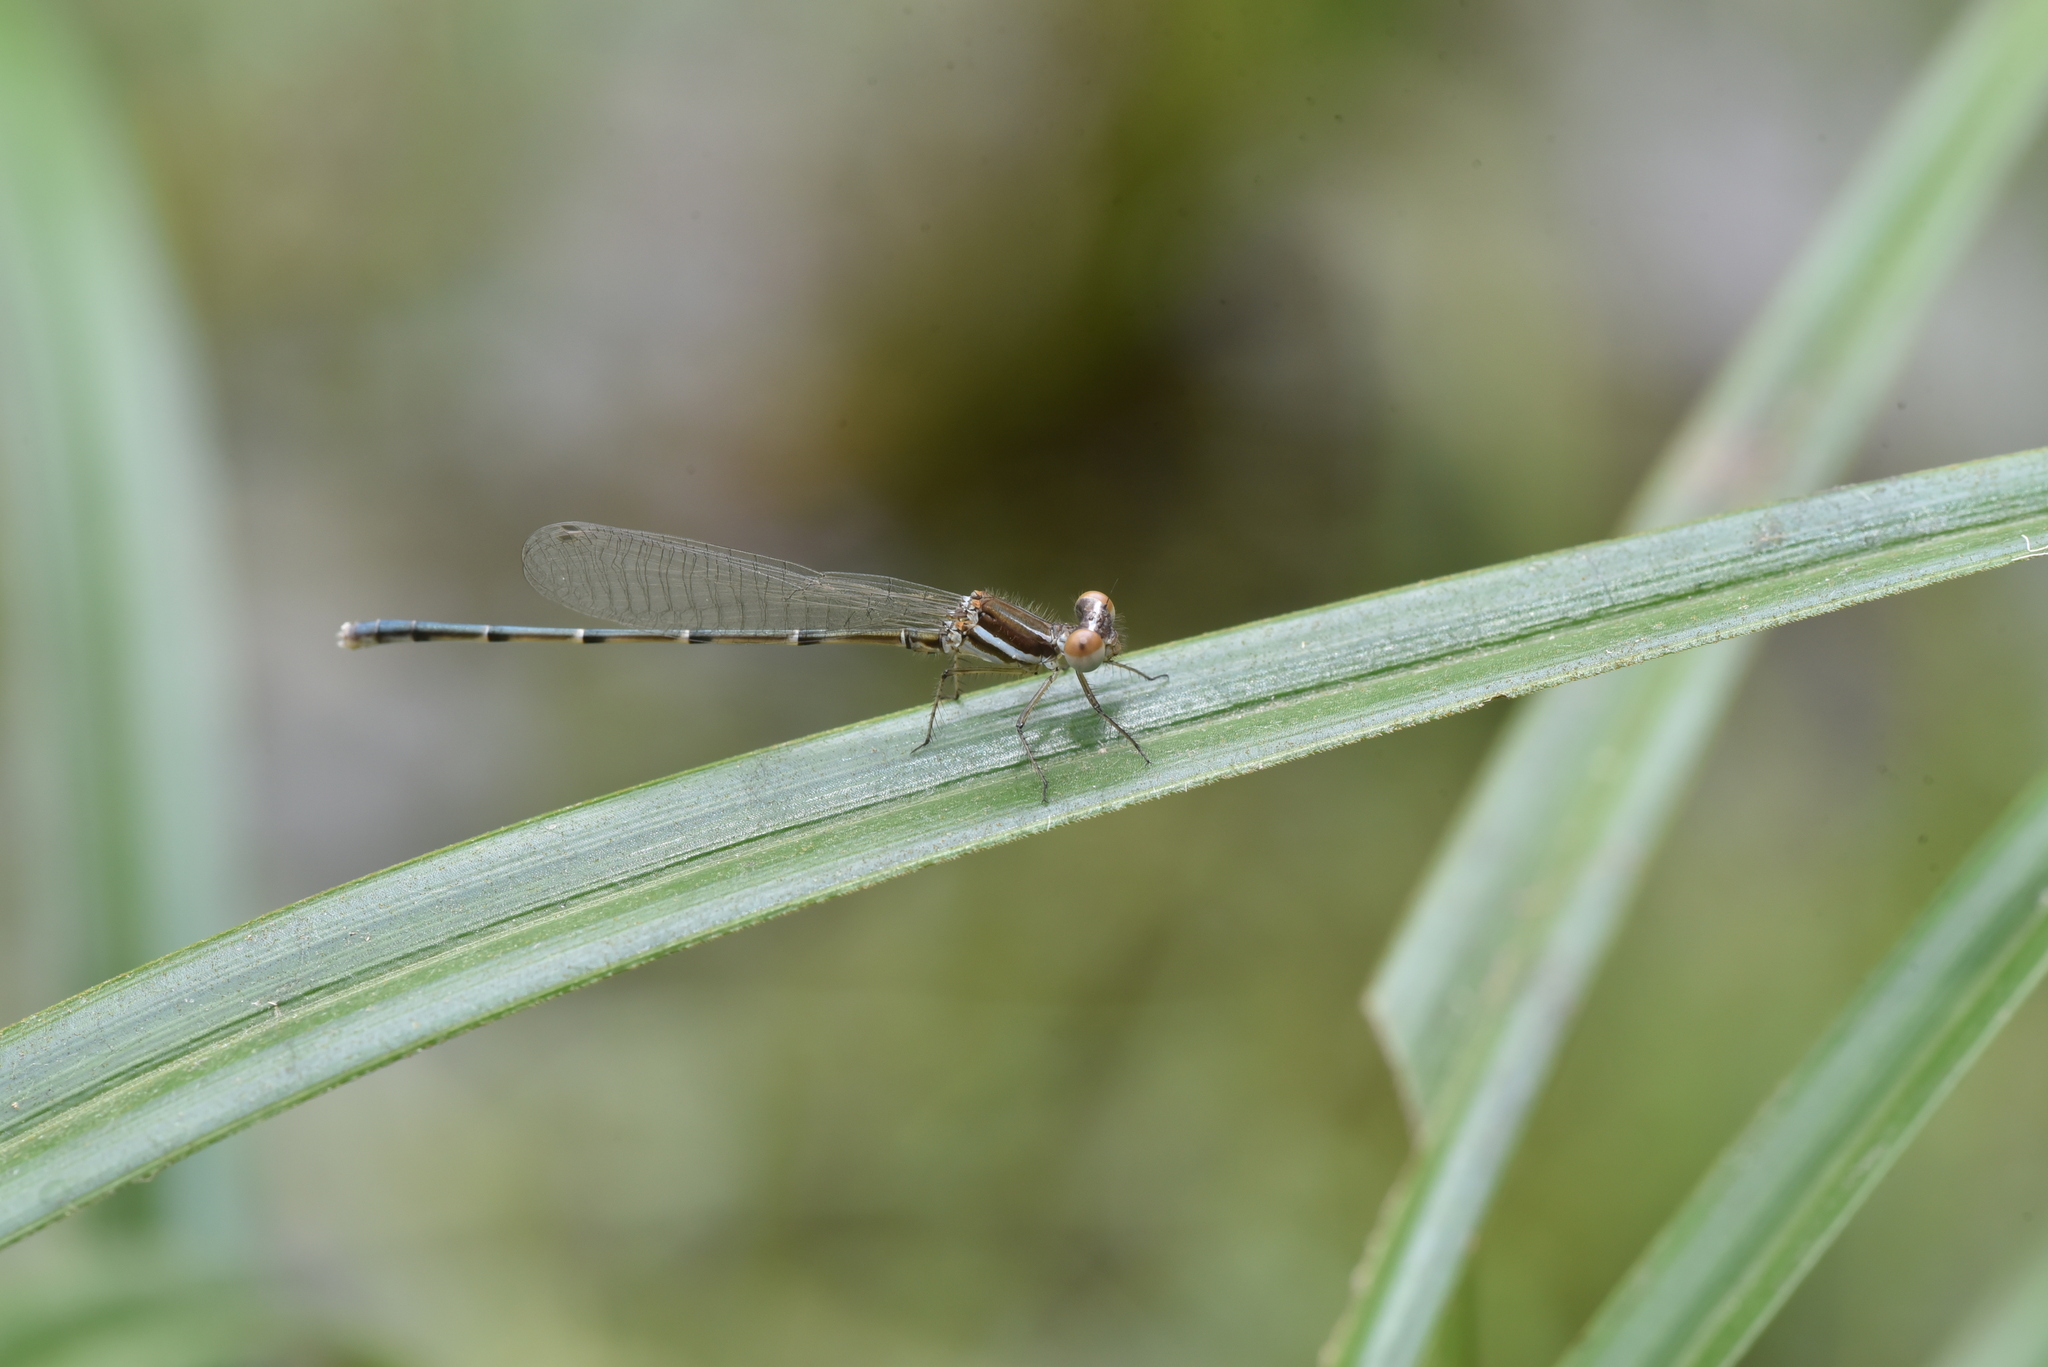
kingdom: Animalia
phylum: Arthropoda
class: Insecta
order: Odonata
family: Platycnemididae
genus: Onychargia
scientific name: Onychargia atrocyana
